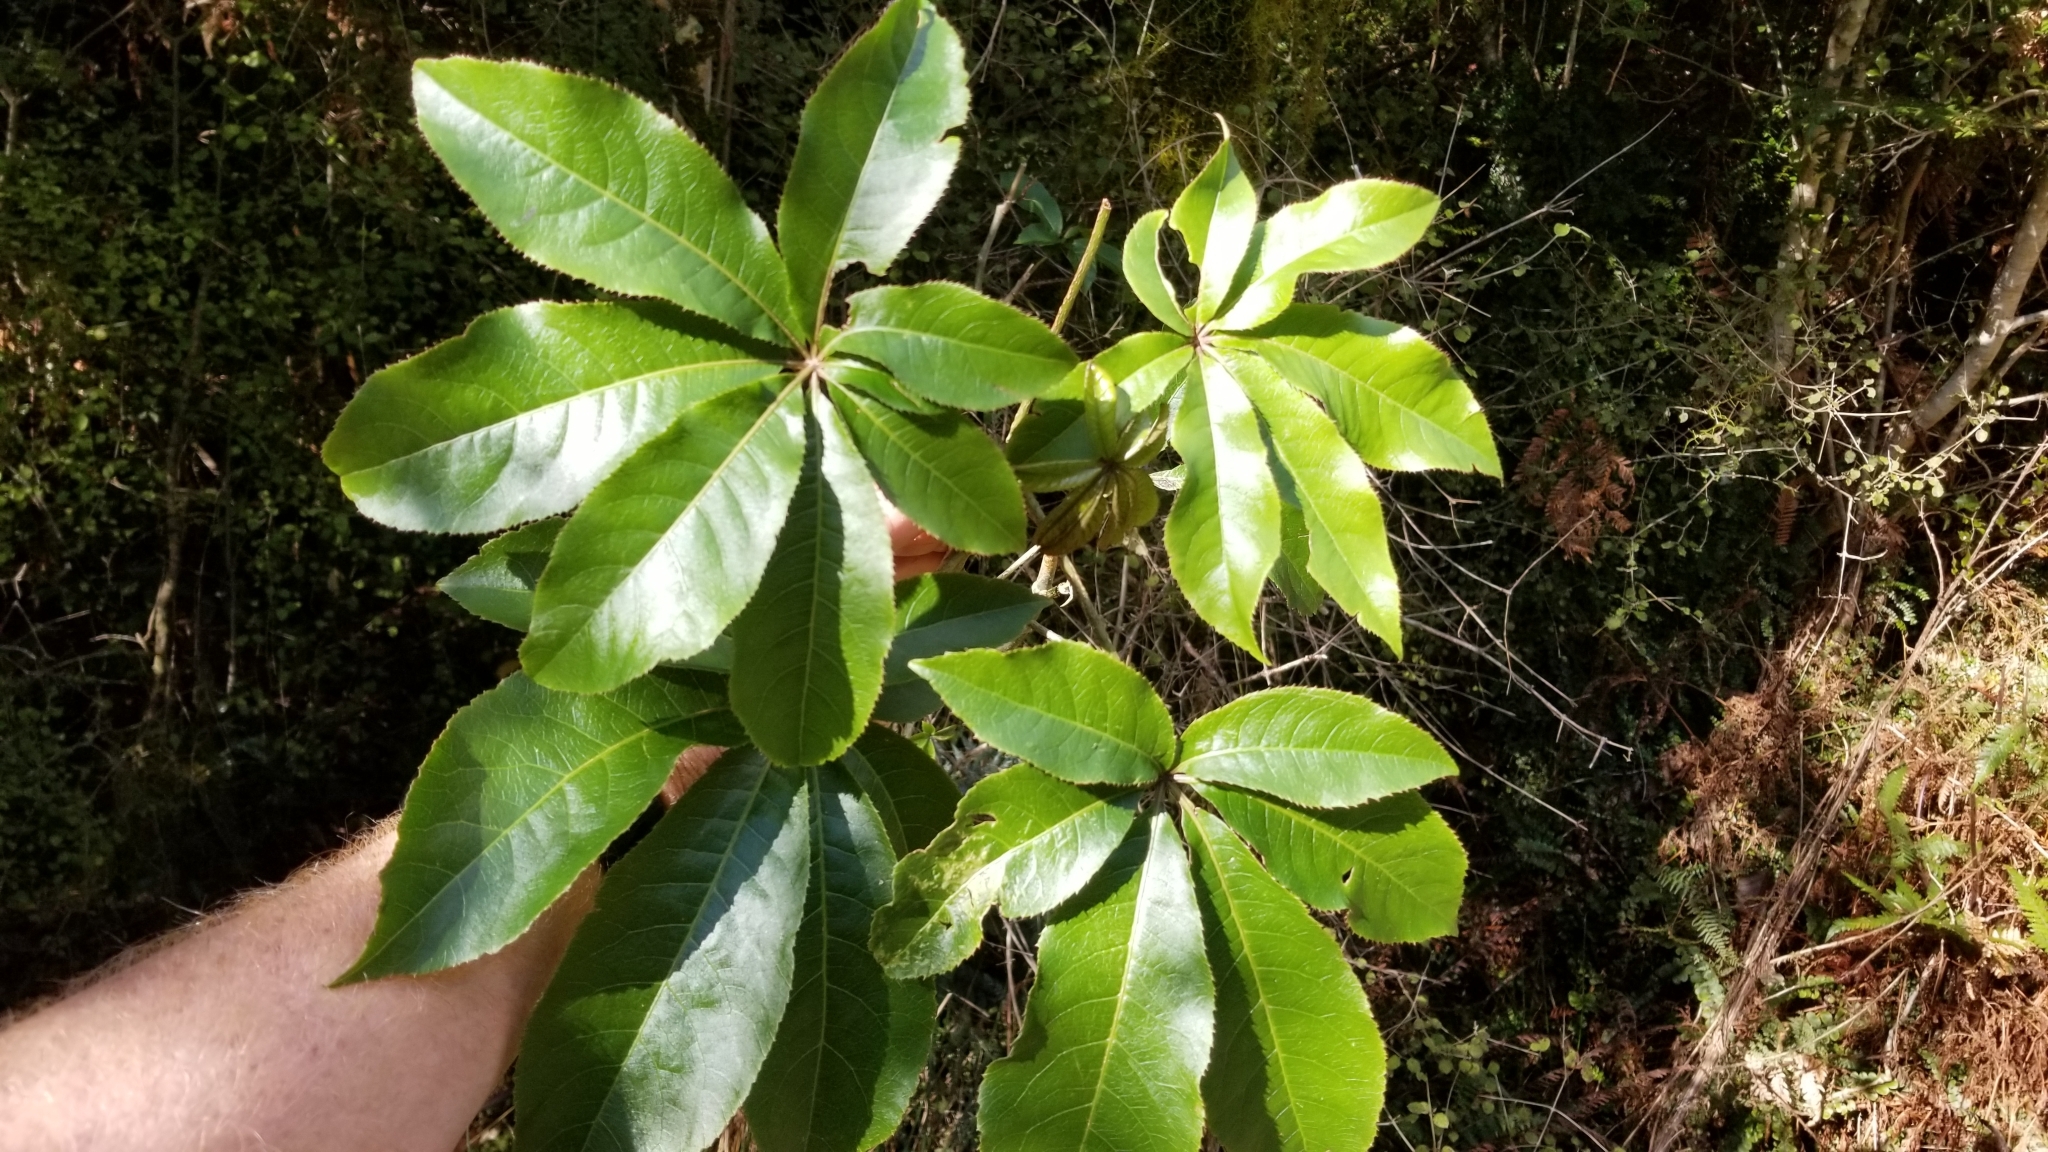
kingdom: Plantae
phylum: Tracheophyta
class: Magnoliopsida
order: Apiales
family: Araliaceae
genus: Schefflera
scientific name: Schefflera digitata
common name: Pate
